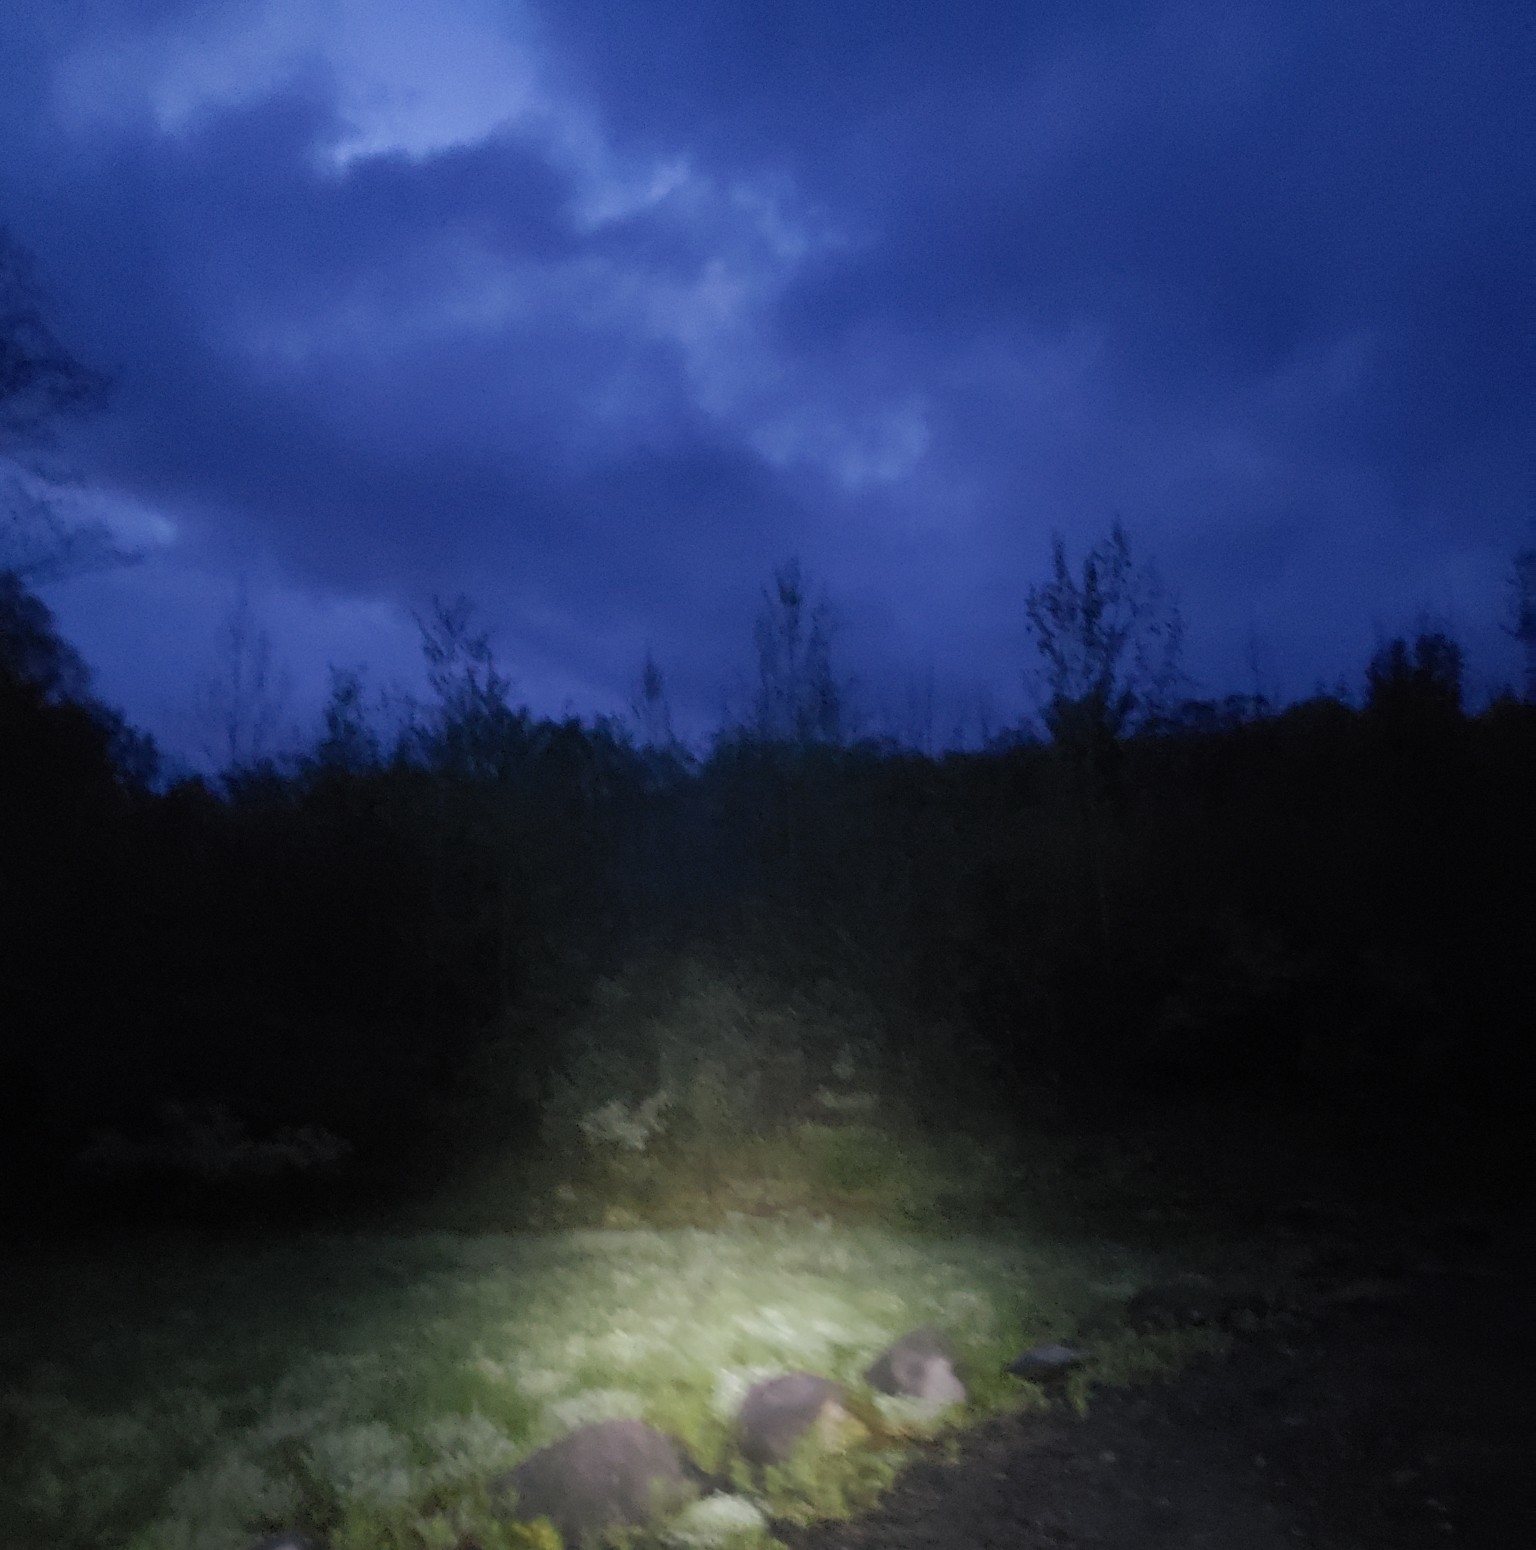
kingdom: Animalia
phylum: Chordata
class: Aves
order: Charadriiformes
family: Scolopacidae
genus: Scolopax
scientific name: Scolopax minor
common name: American woodcock
